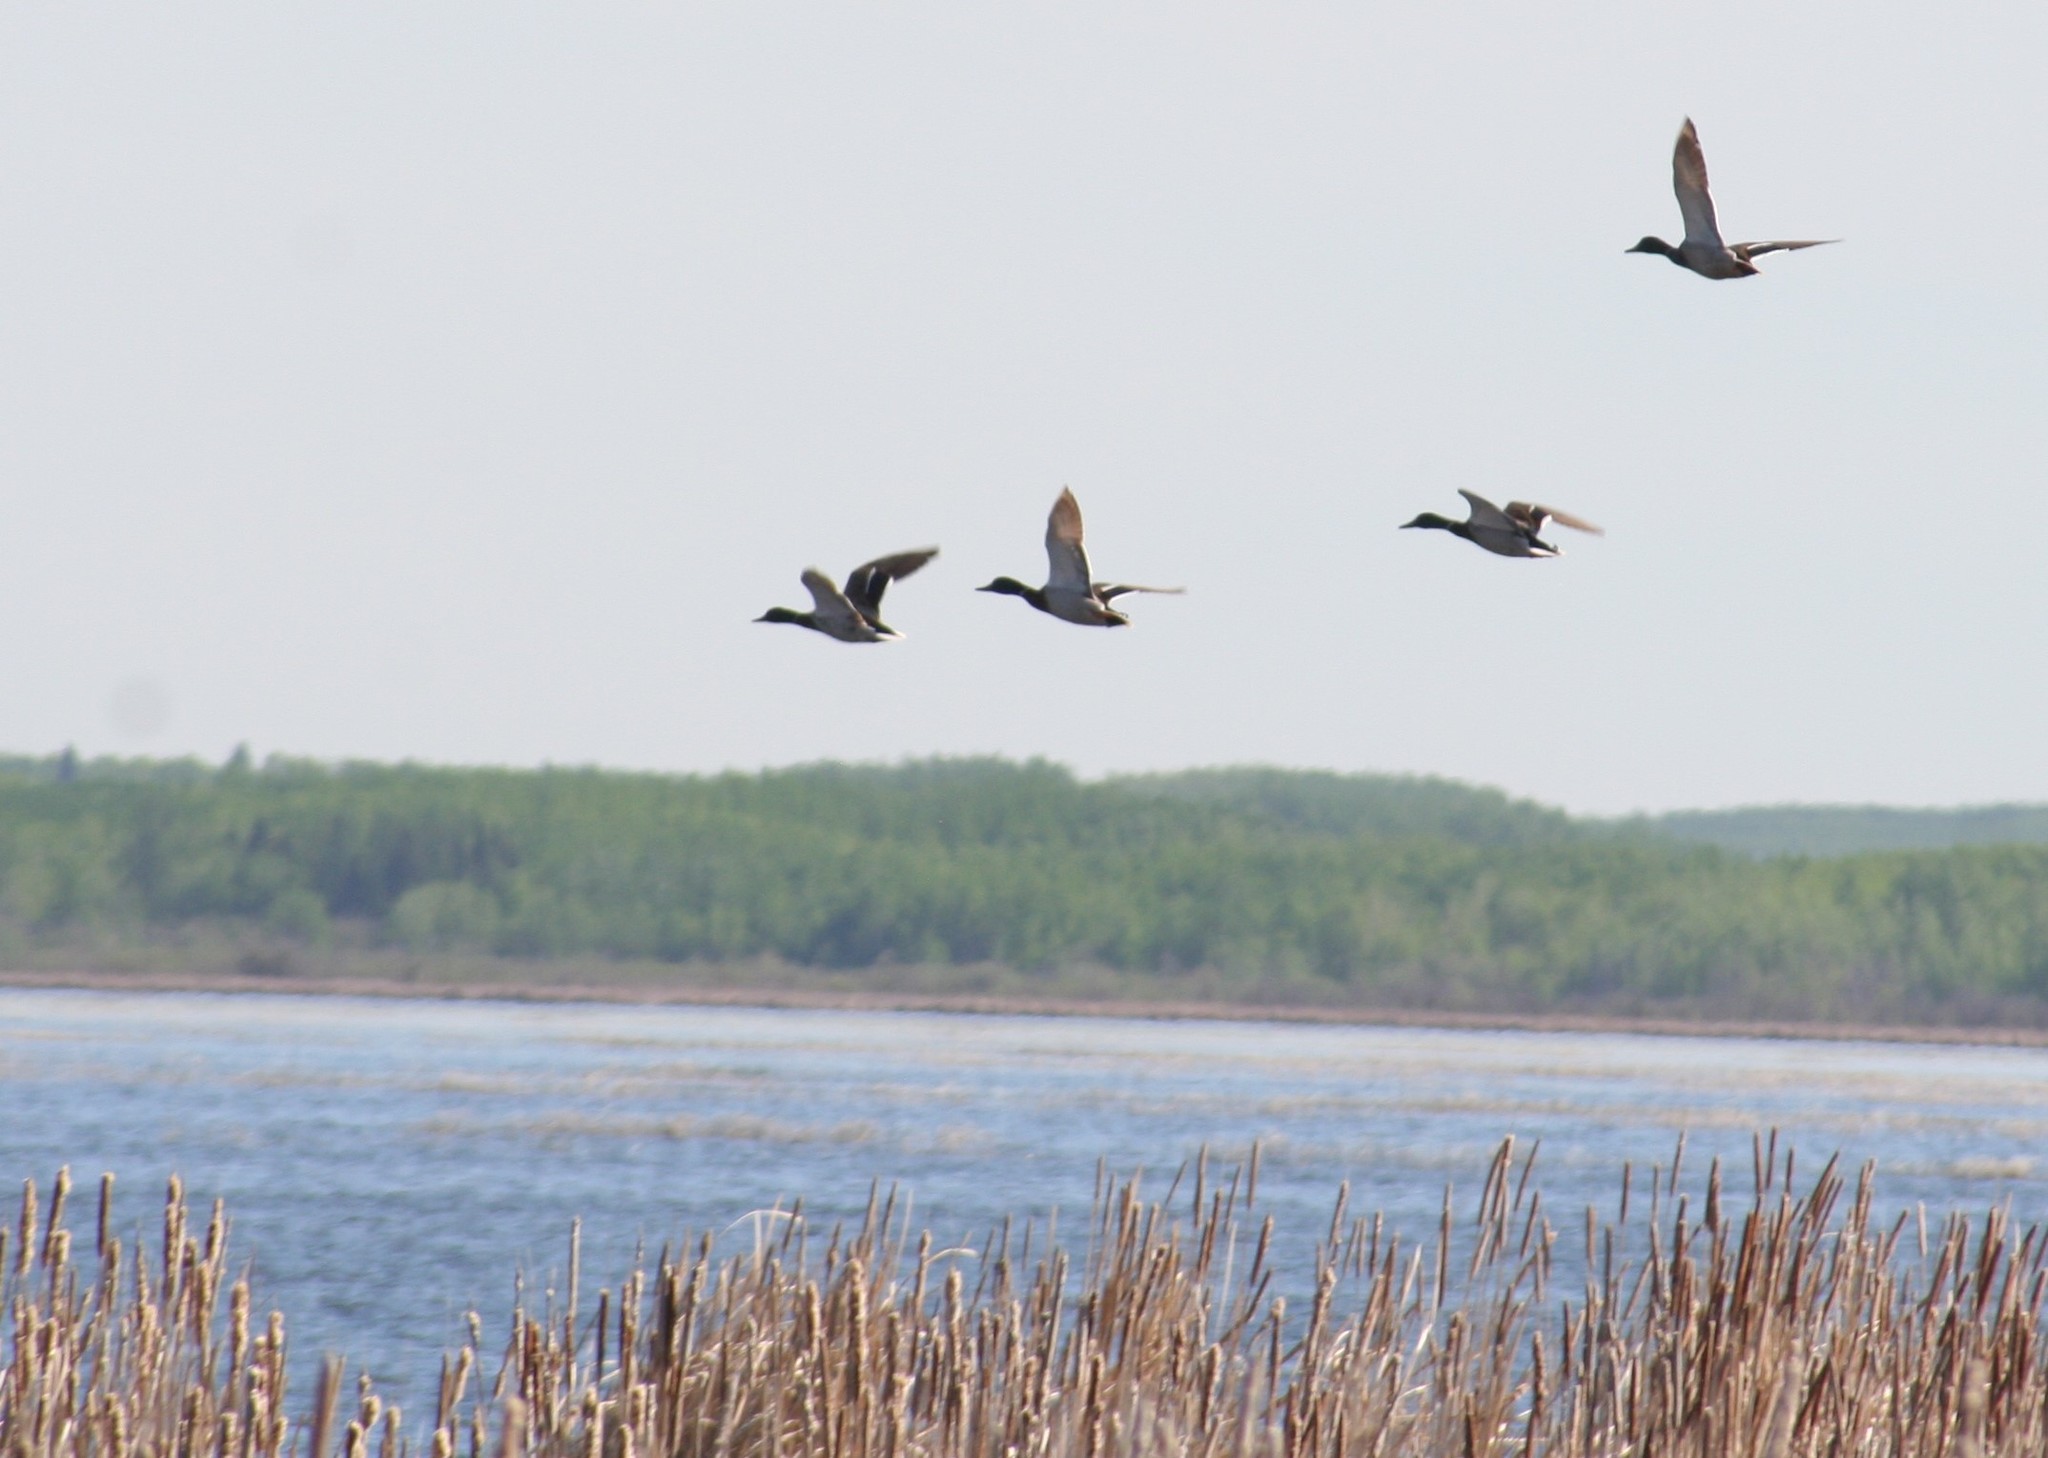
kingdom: Animalia
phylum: Chordata
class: Aves
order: Anseriformes
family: Anatidae
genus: Anas
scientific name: Anas platyrhynchos
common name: Mallard
